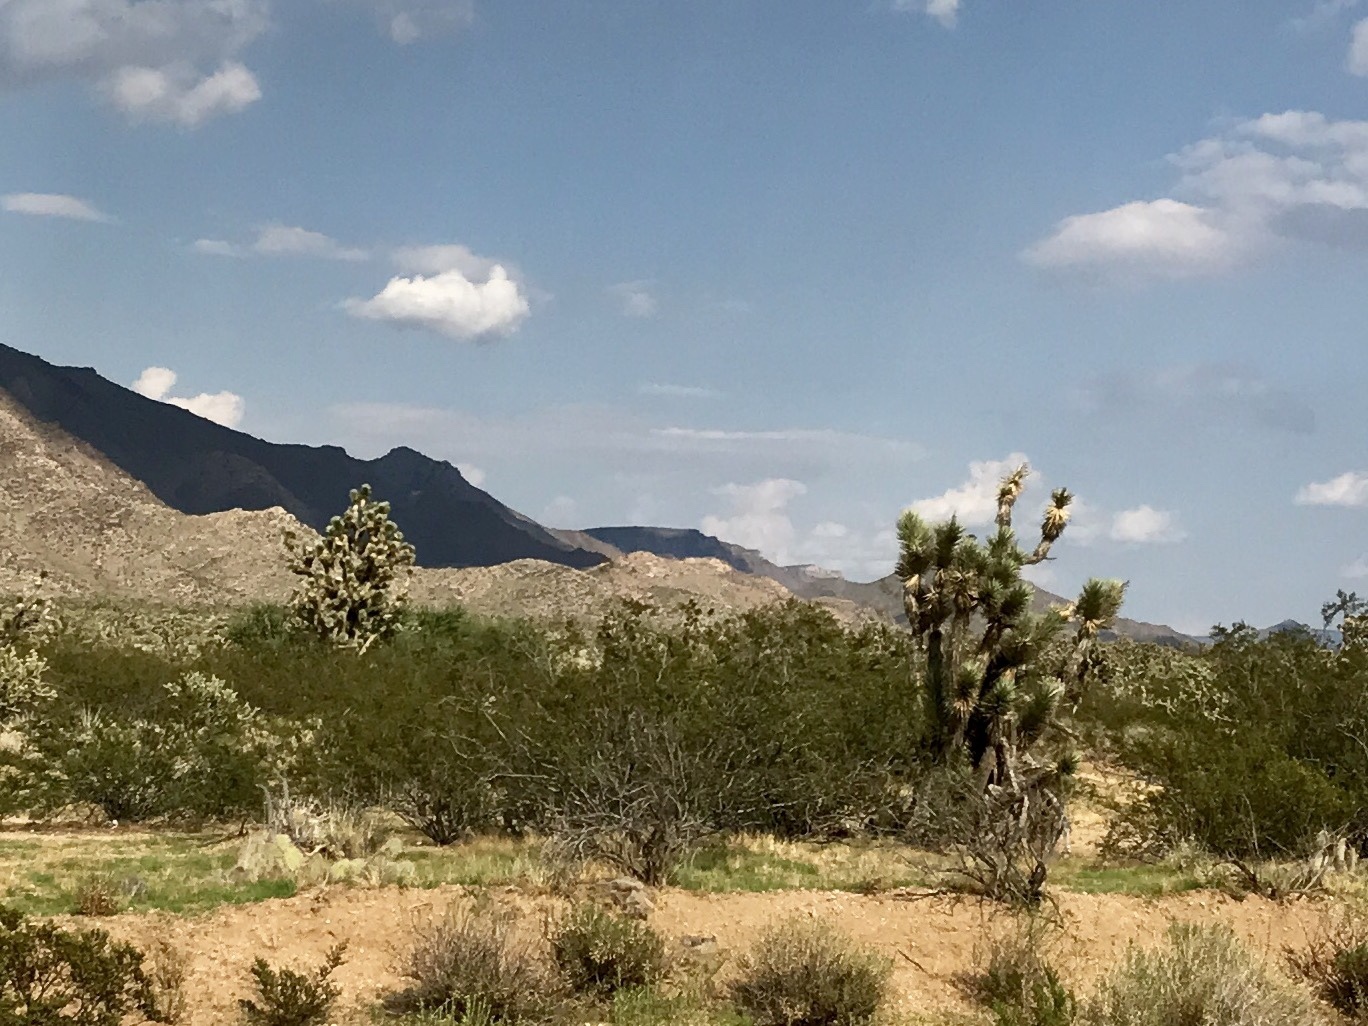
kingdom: Plantae
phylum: Tracheophyta
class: Magnoliopsida
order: Zygophyllales
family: Zygophyllaceae
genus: Larrea
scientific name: Larrea tridentata
